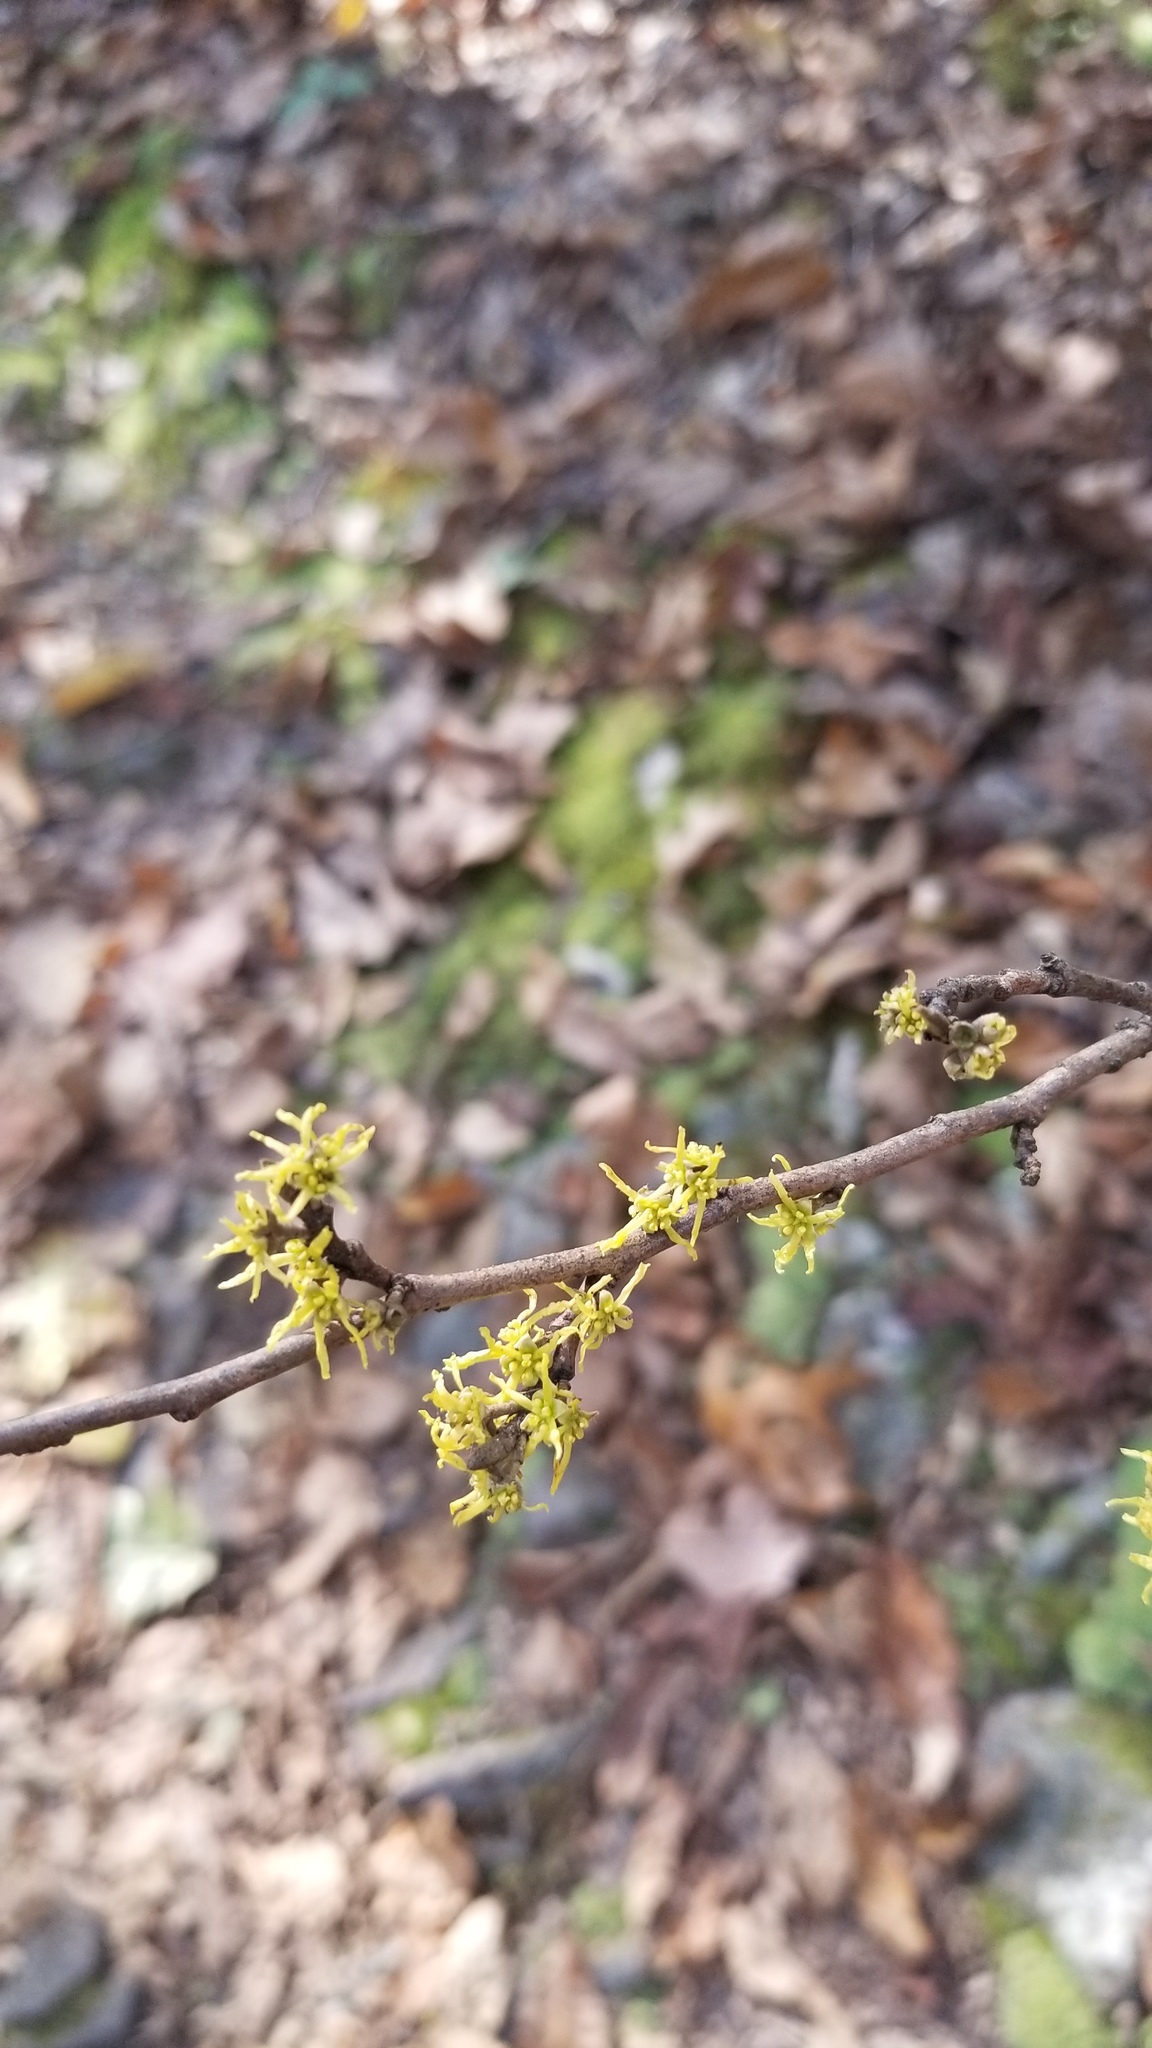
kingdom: Plantae
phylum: Tracheophyta
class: Magnoliopsida
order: Saxifragales
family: Hamamelidaceae
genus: Hamamelis
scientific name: Hamamelis virginiana
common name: Witch-hazel
